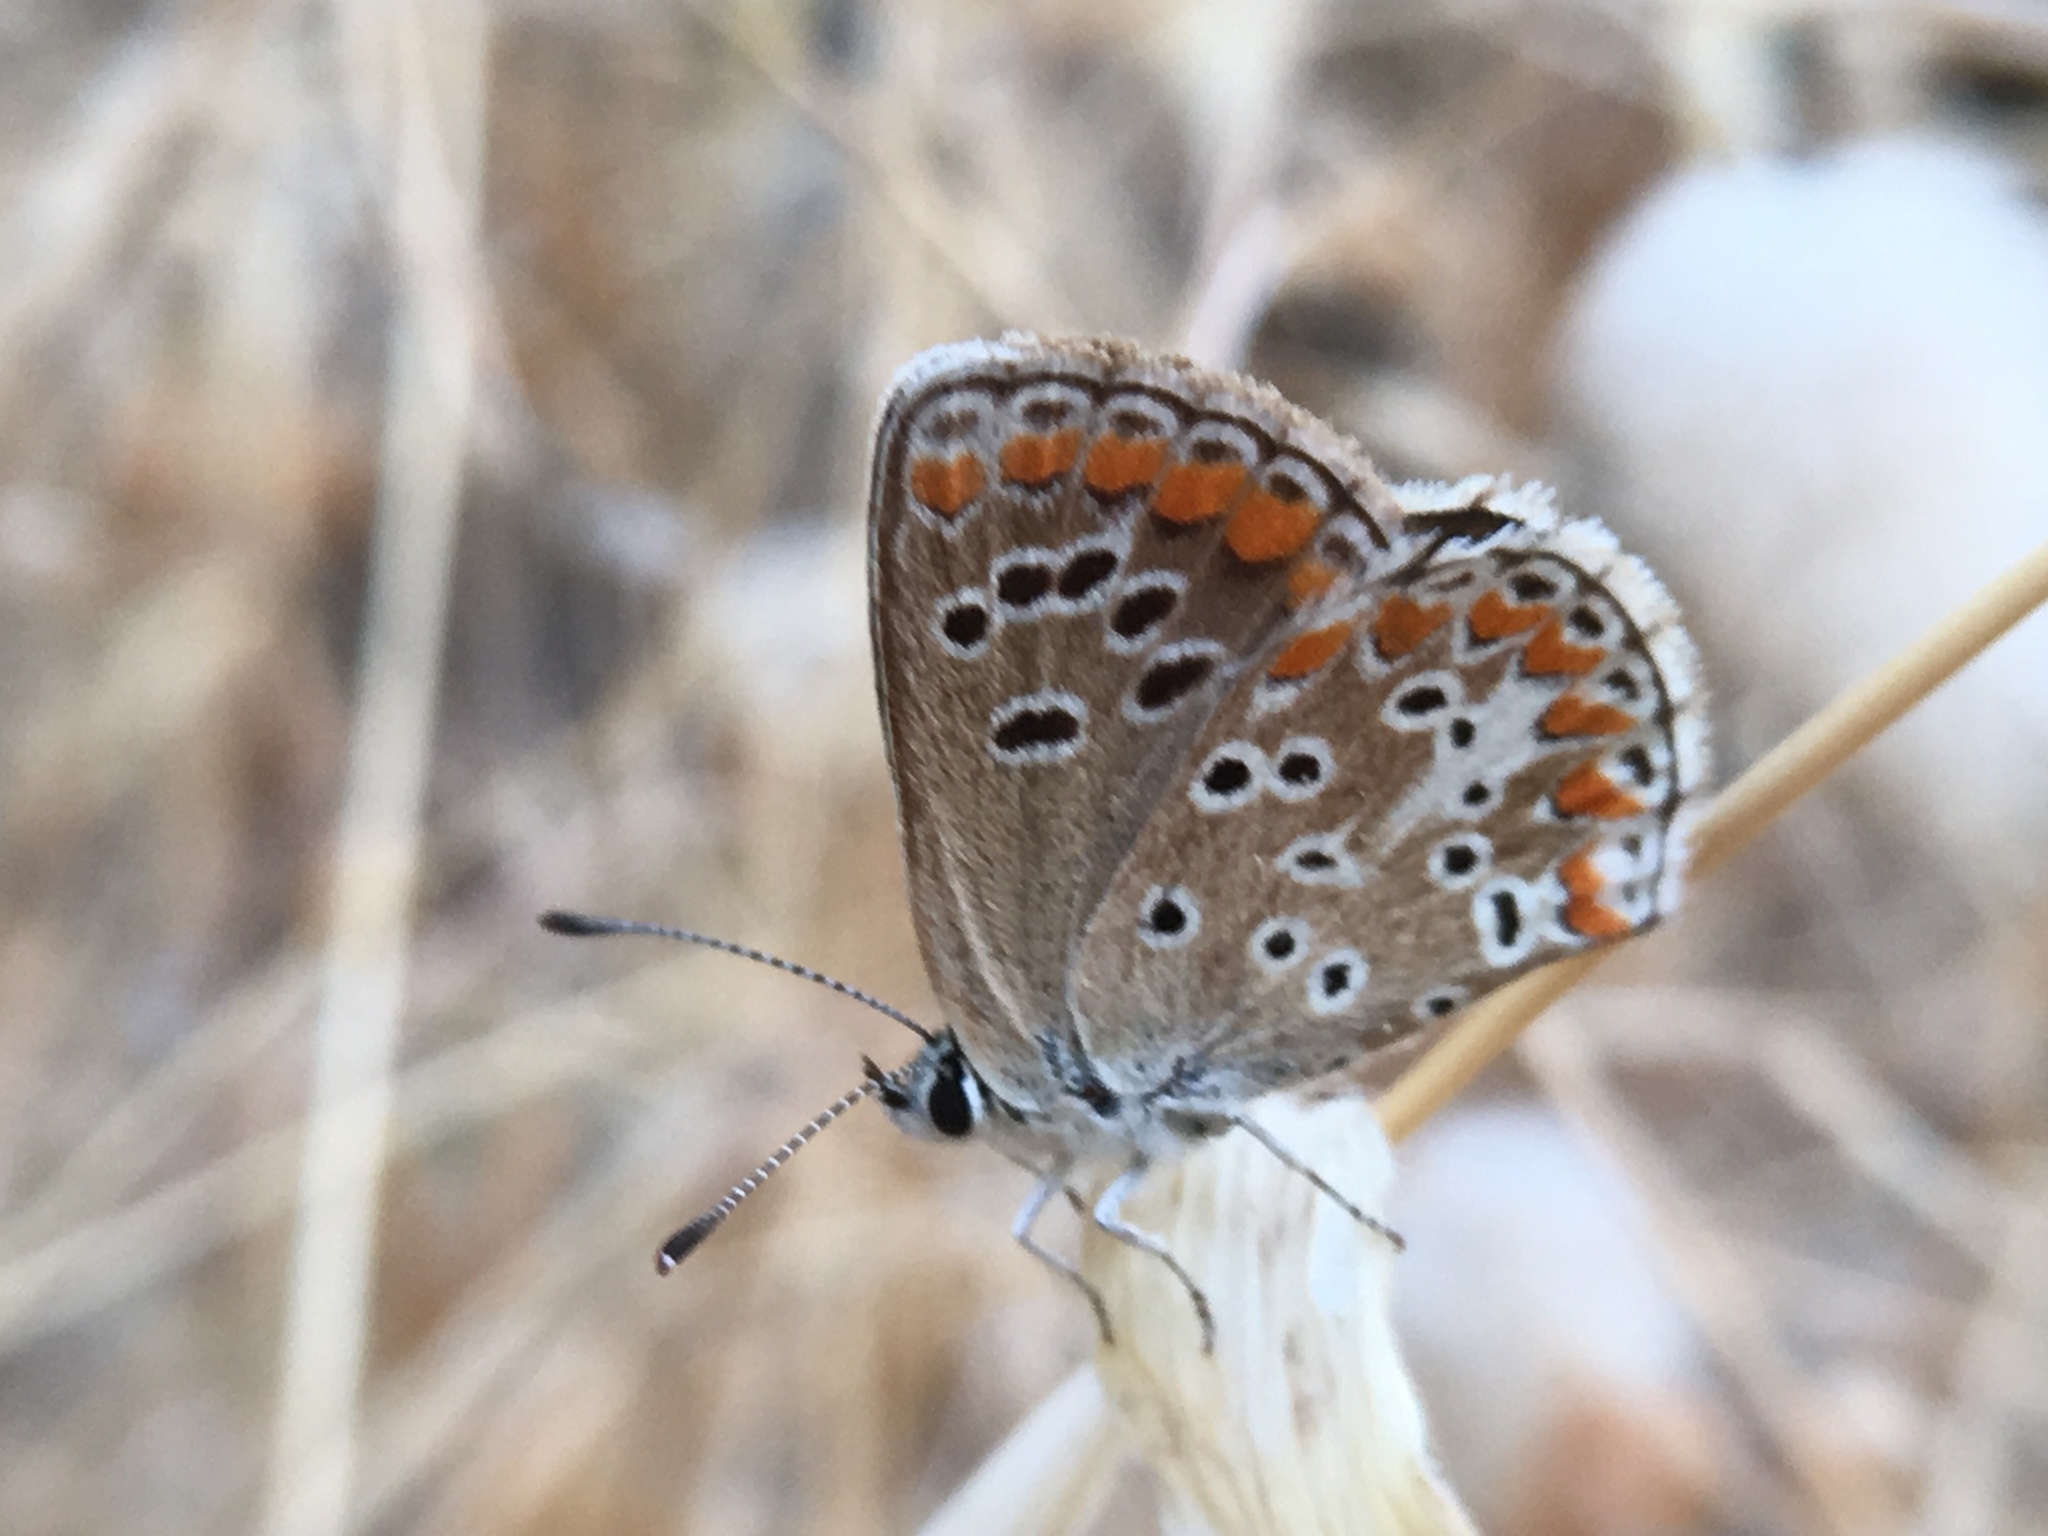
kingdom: Animalia
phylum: Arthropoda
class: Insecta
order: Lepidoptera
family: Lycaenidae
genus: Aricia
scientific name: Aricia agestis
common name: Brown argus
